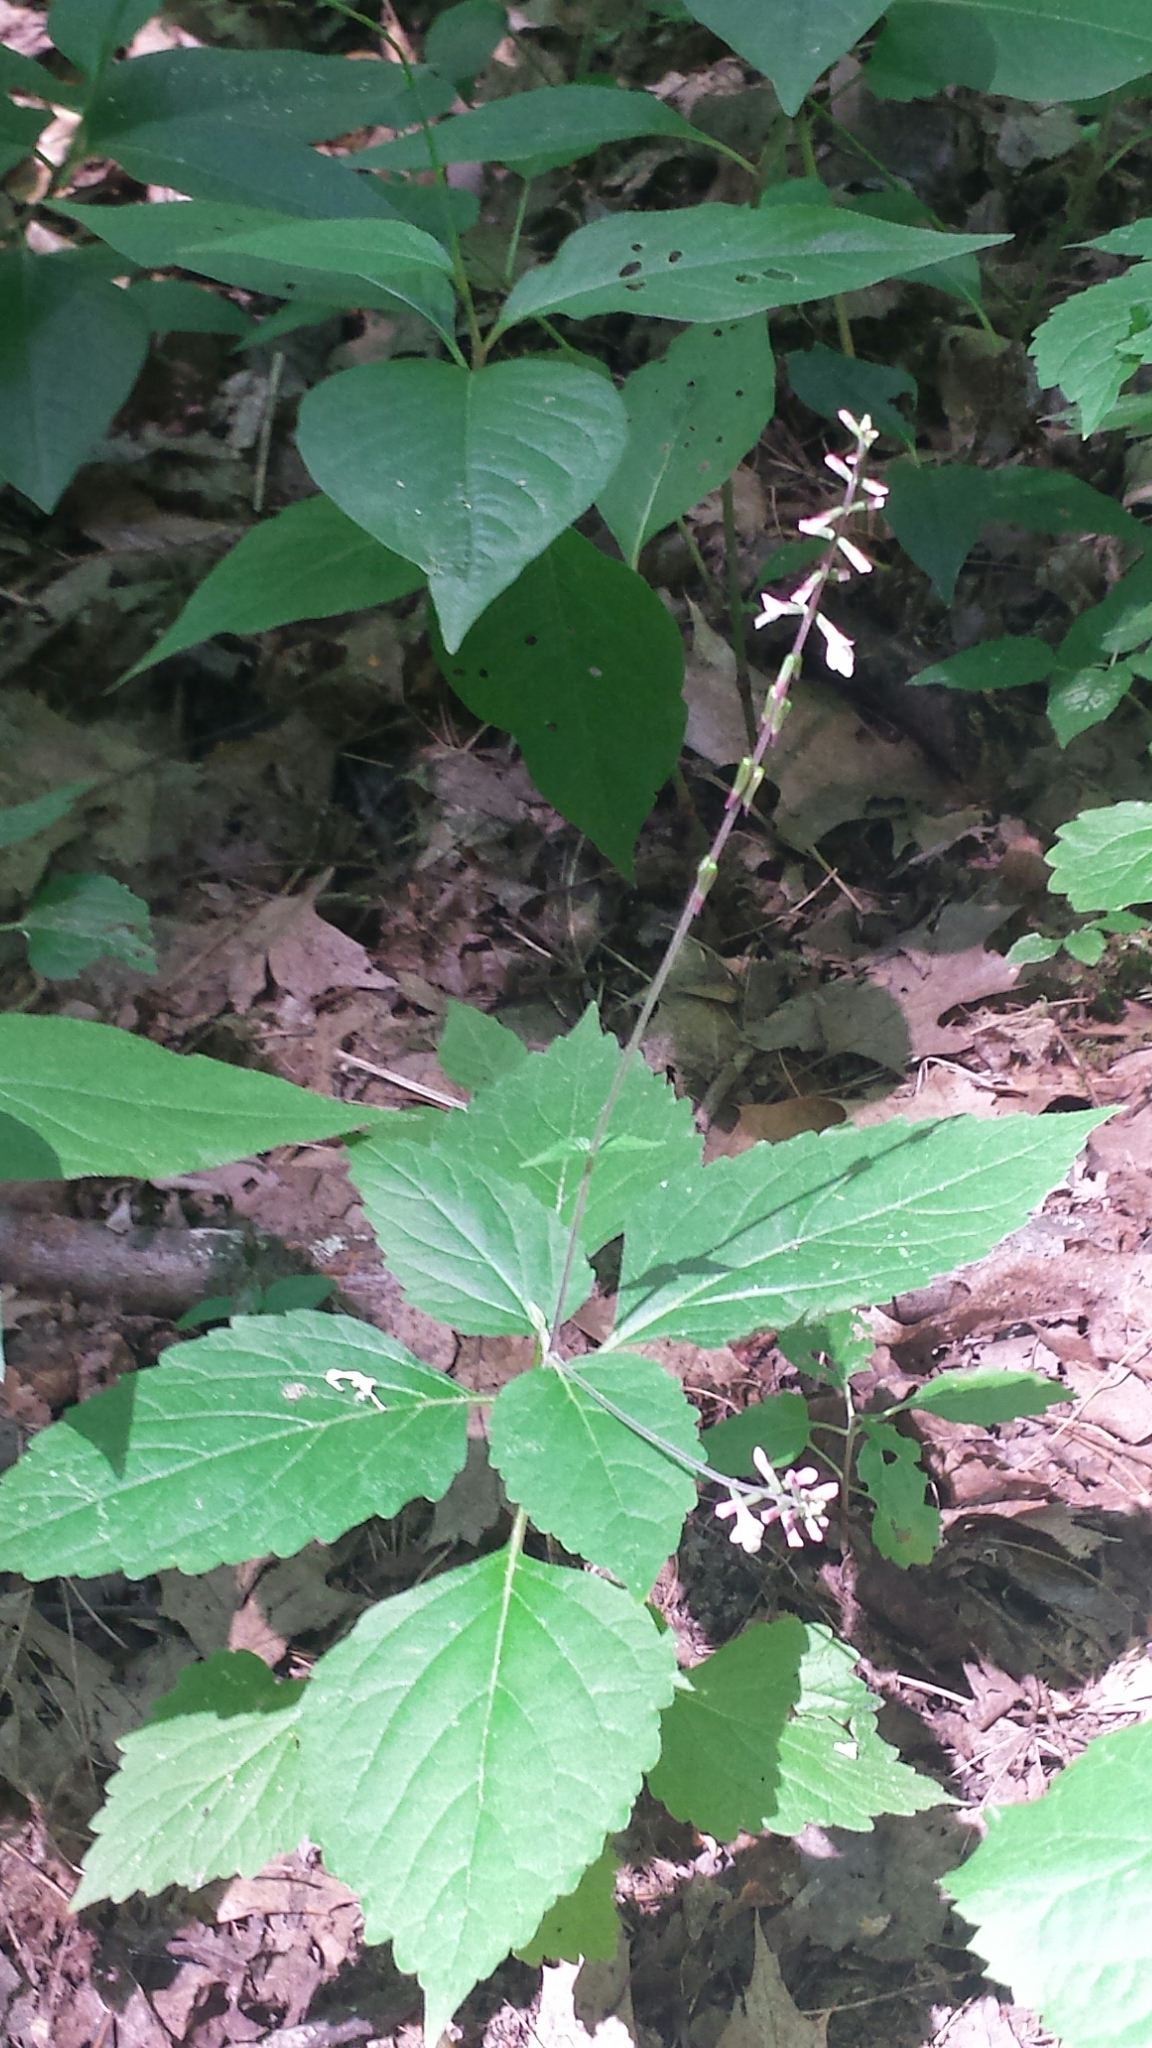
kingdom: Plantae
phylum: Tracheophyta
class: Magnoliopsida
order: Lamiales
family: Phrymaceae
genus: Phryma
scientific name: Phryma leptostachya
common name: American lopseed
